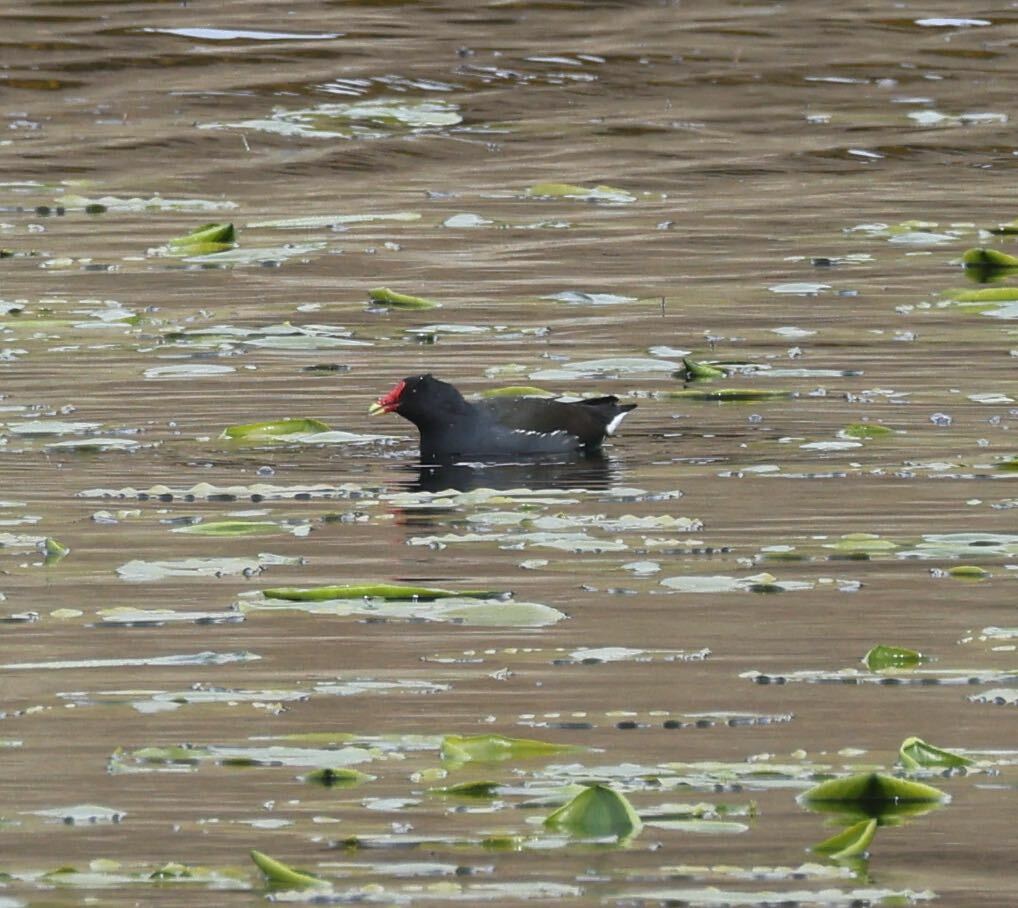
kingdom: Animalia
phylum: Chordata
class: Aves
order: Gruiformes
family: Rallidae
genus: Gallinula
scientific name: Gallinula chloropus
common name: Common moorhen
